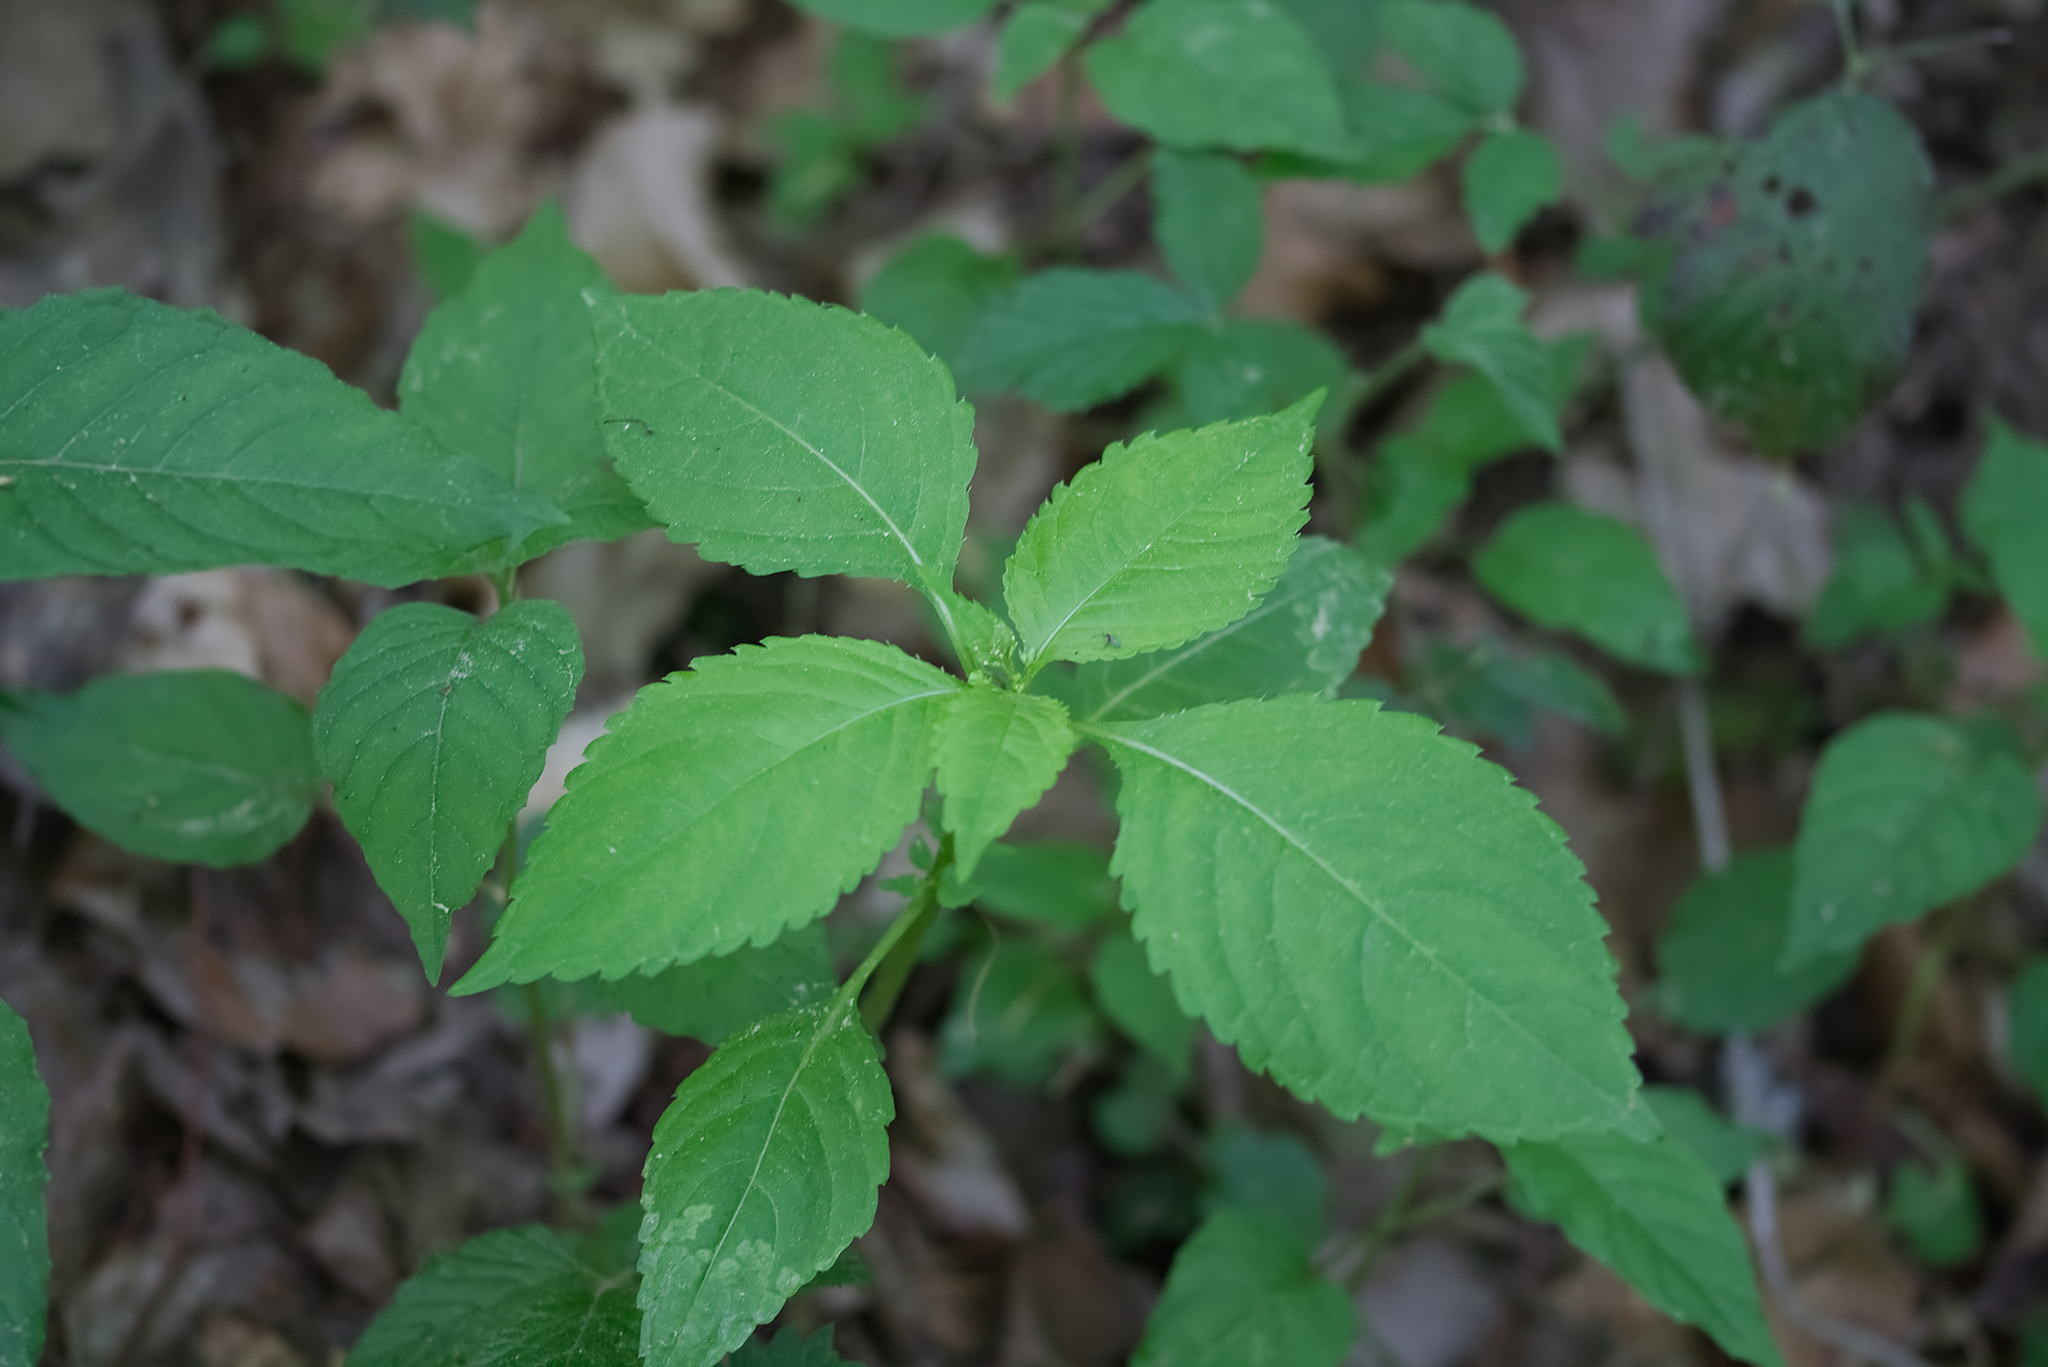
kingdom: Plantae
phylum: Tracheophyta
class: Magnoliopsida
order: Ericales
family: Balsaminaceae
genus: Impatiens
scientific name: Impatiens parviflora
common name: Small balsam
